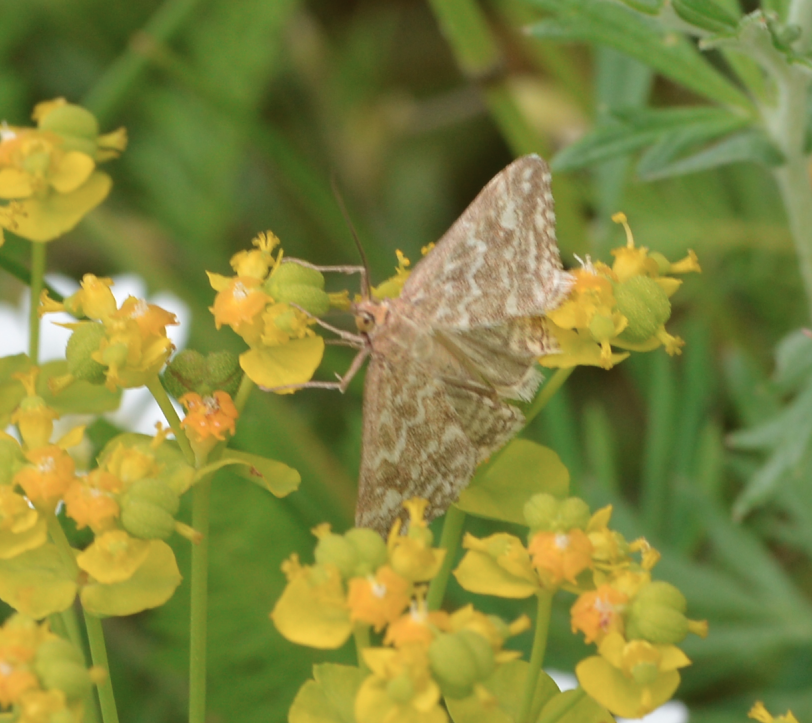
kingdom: Animalia
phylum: Arthropoda
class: Insecta
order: Lepidoptera
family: Crambidae
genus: Evergestis
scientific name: Evergestis frumentalis
